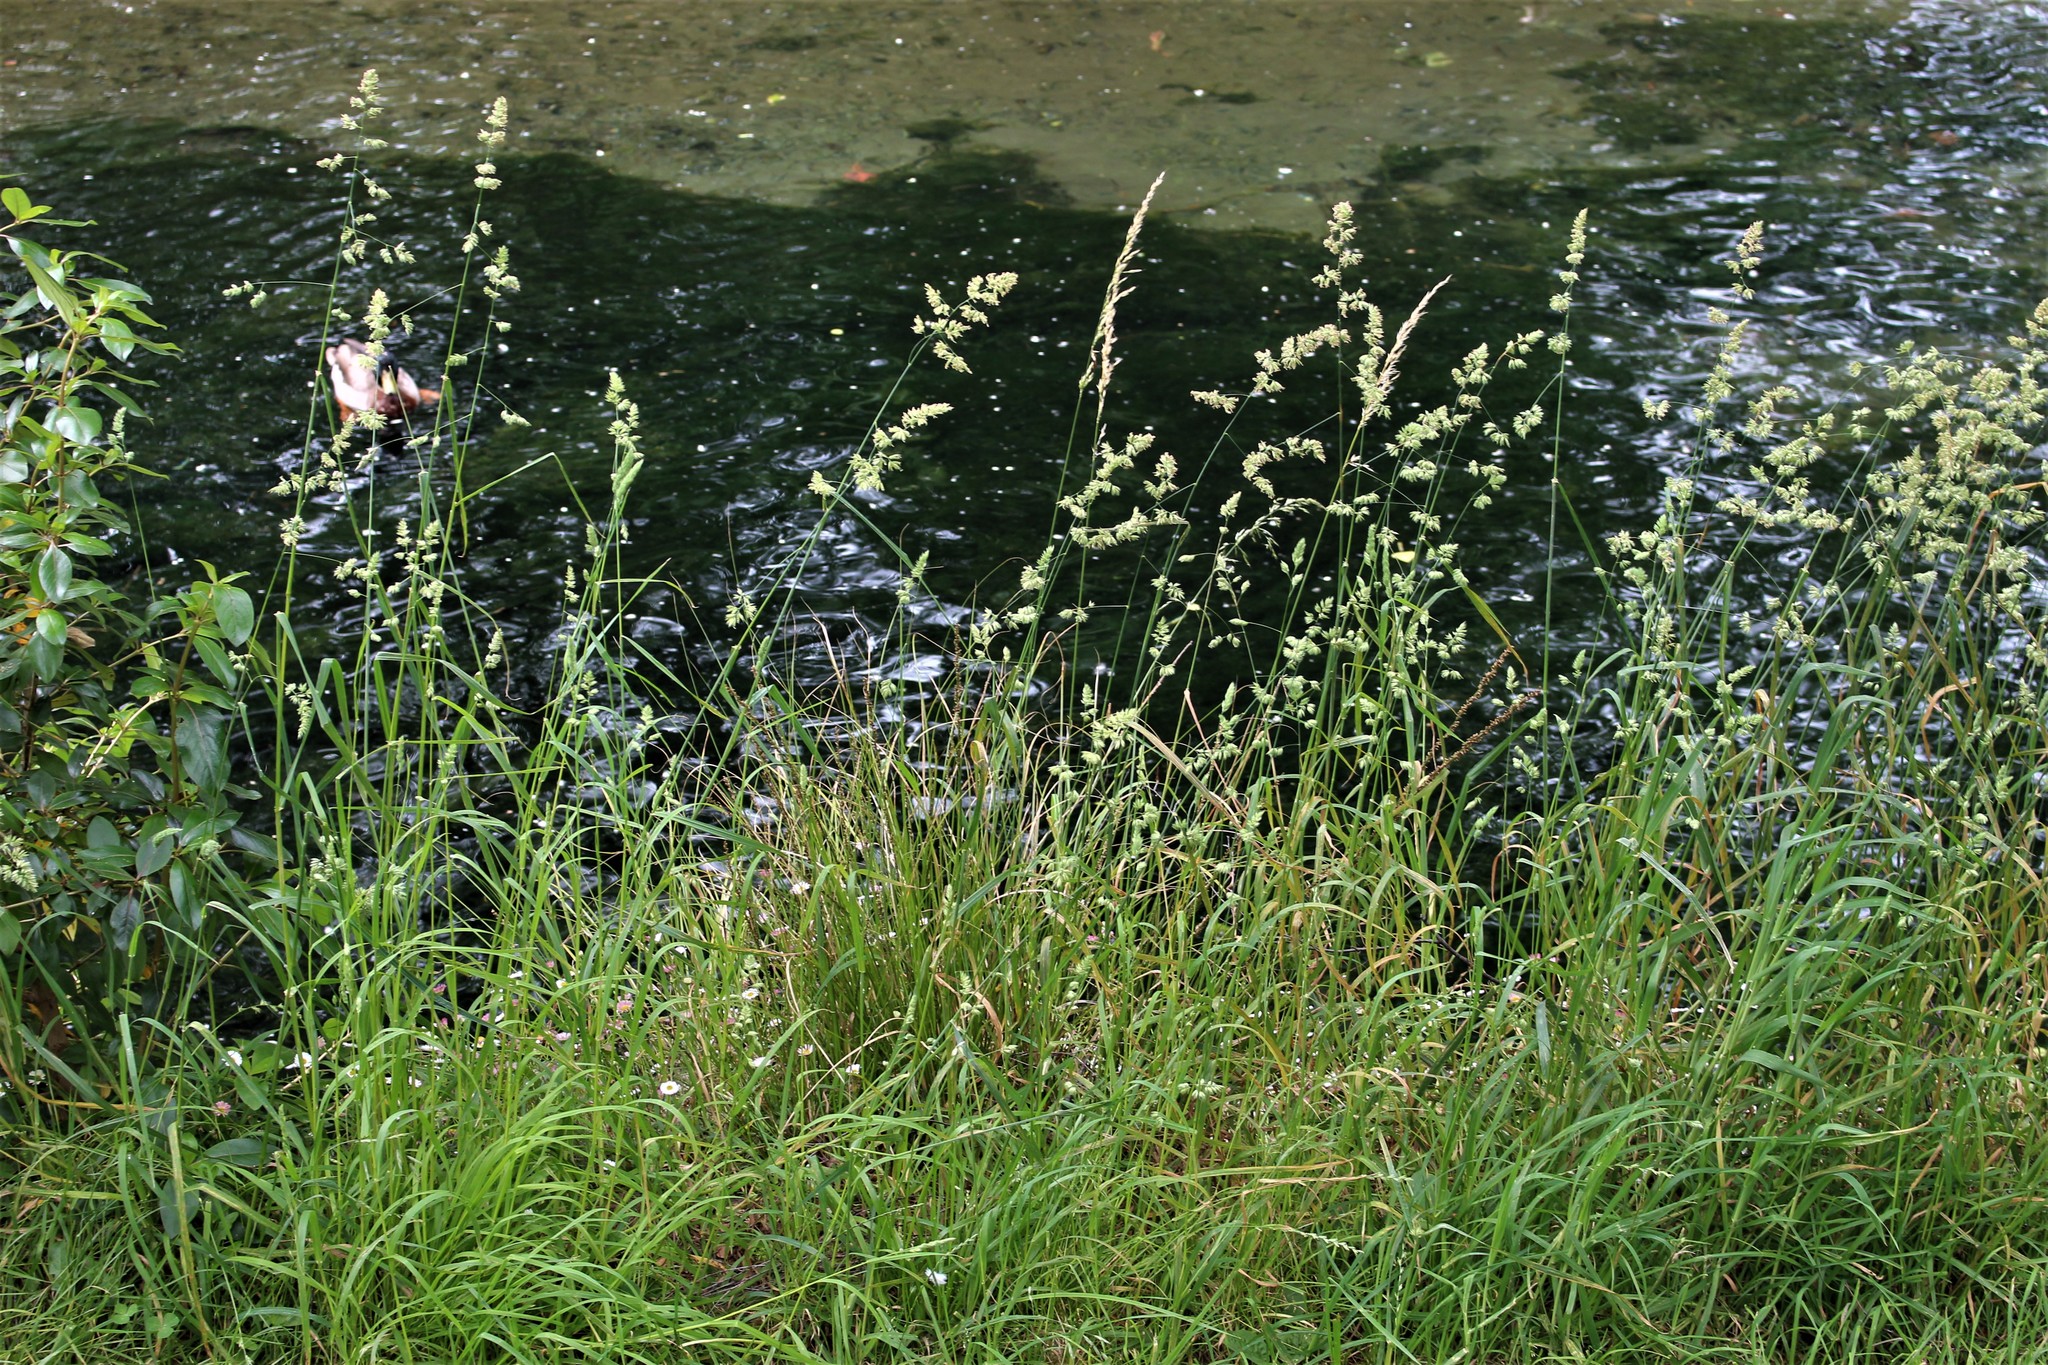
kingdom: Plantae
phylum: Tracheophyta
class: Liliopsida
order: Poales
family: Poaceae
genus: Dactylis
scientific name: Dactylis glomerata
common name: Orchardgrass
